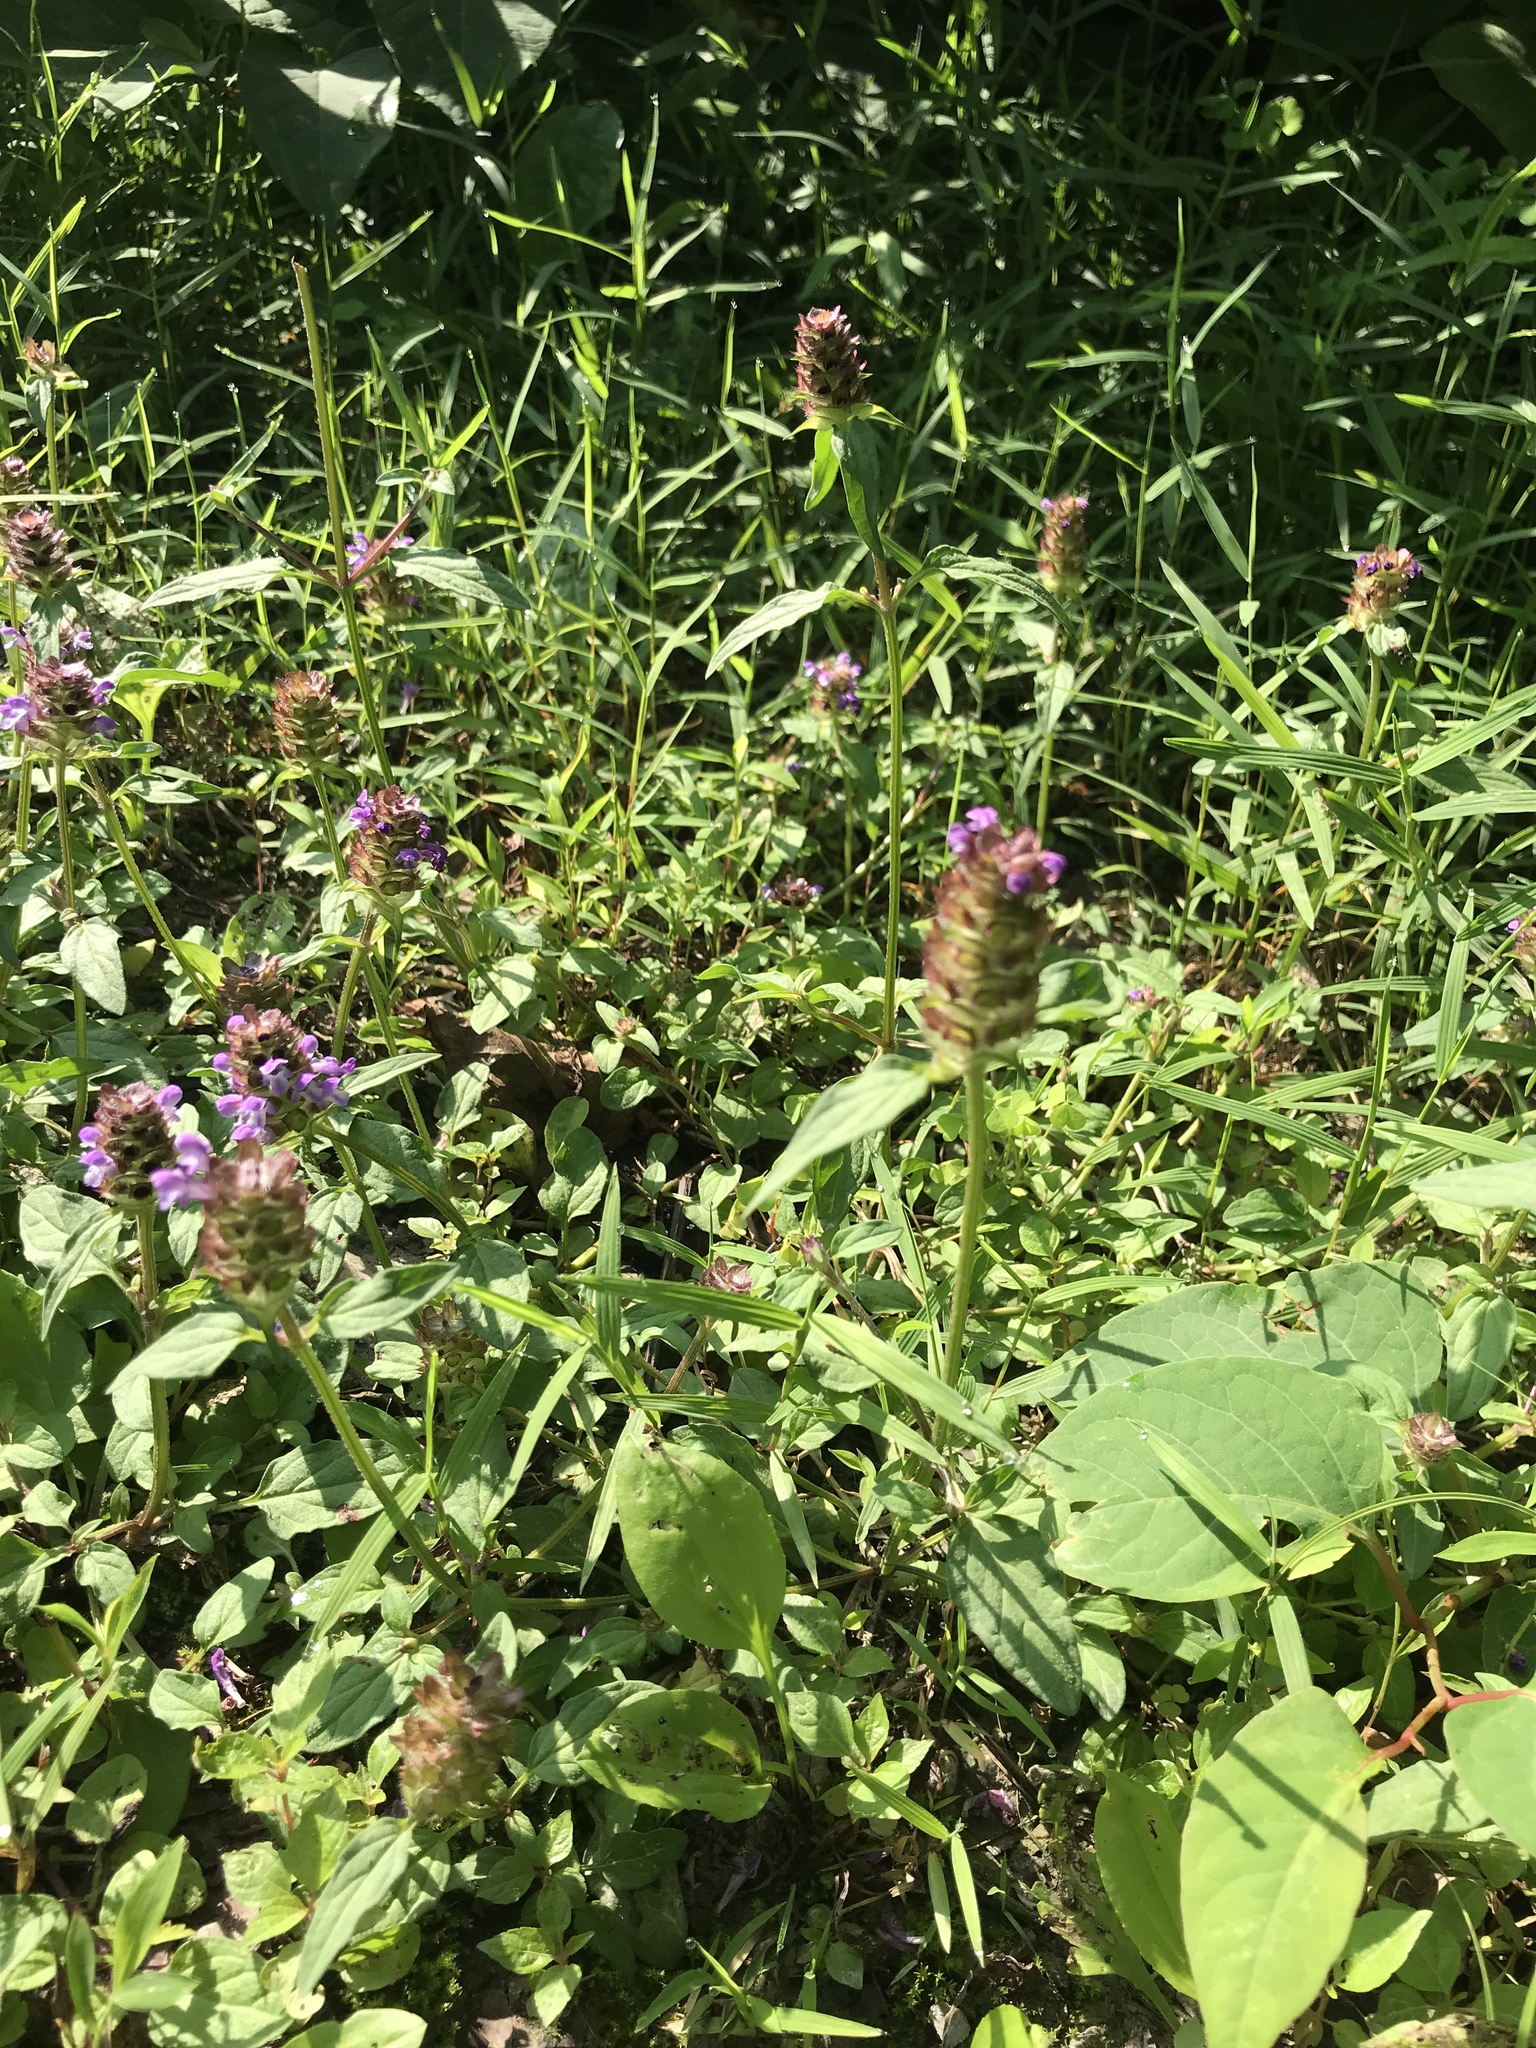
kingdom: Plantae
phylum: Tracheophyta
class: Magnoliopsida
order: Lamiales
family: Lamiaceae
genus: Prunella
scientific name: Prunella vulgaris
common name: Heal-all
